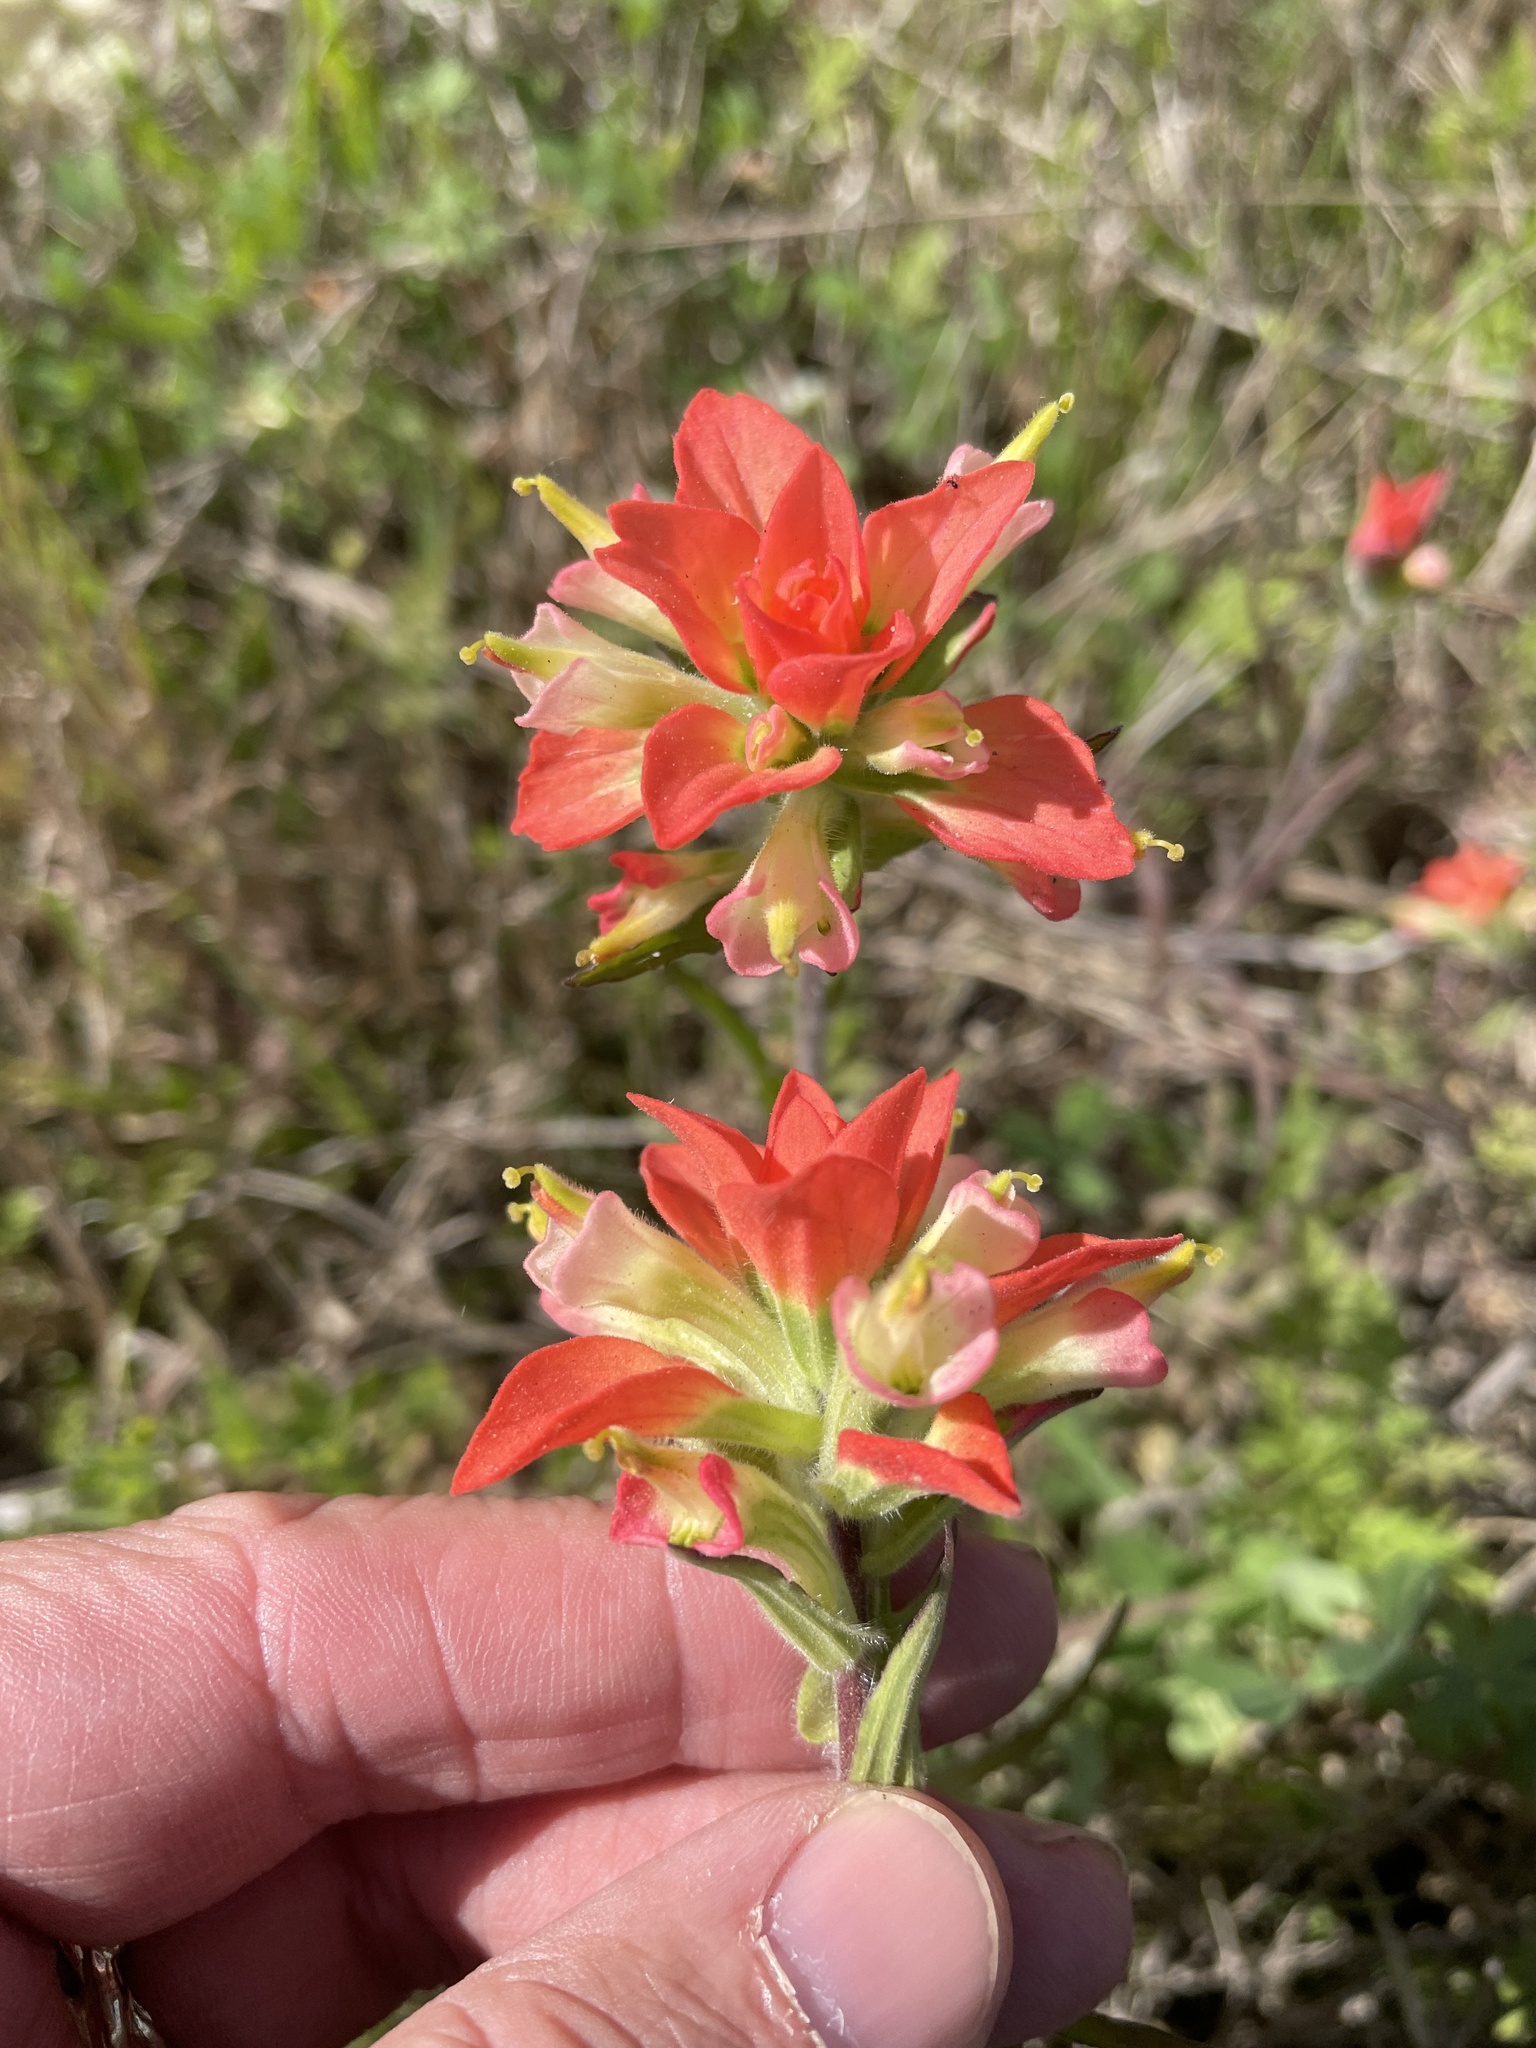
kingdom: Plantae
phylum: Tracheophyta
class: Magnoliopsida
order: Lamiales
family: Orobanchaceae
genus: Castilleja
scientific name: Castilleja indivisa
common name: Texas paintbrush
